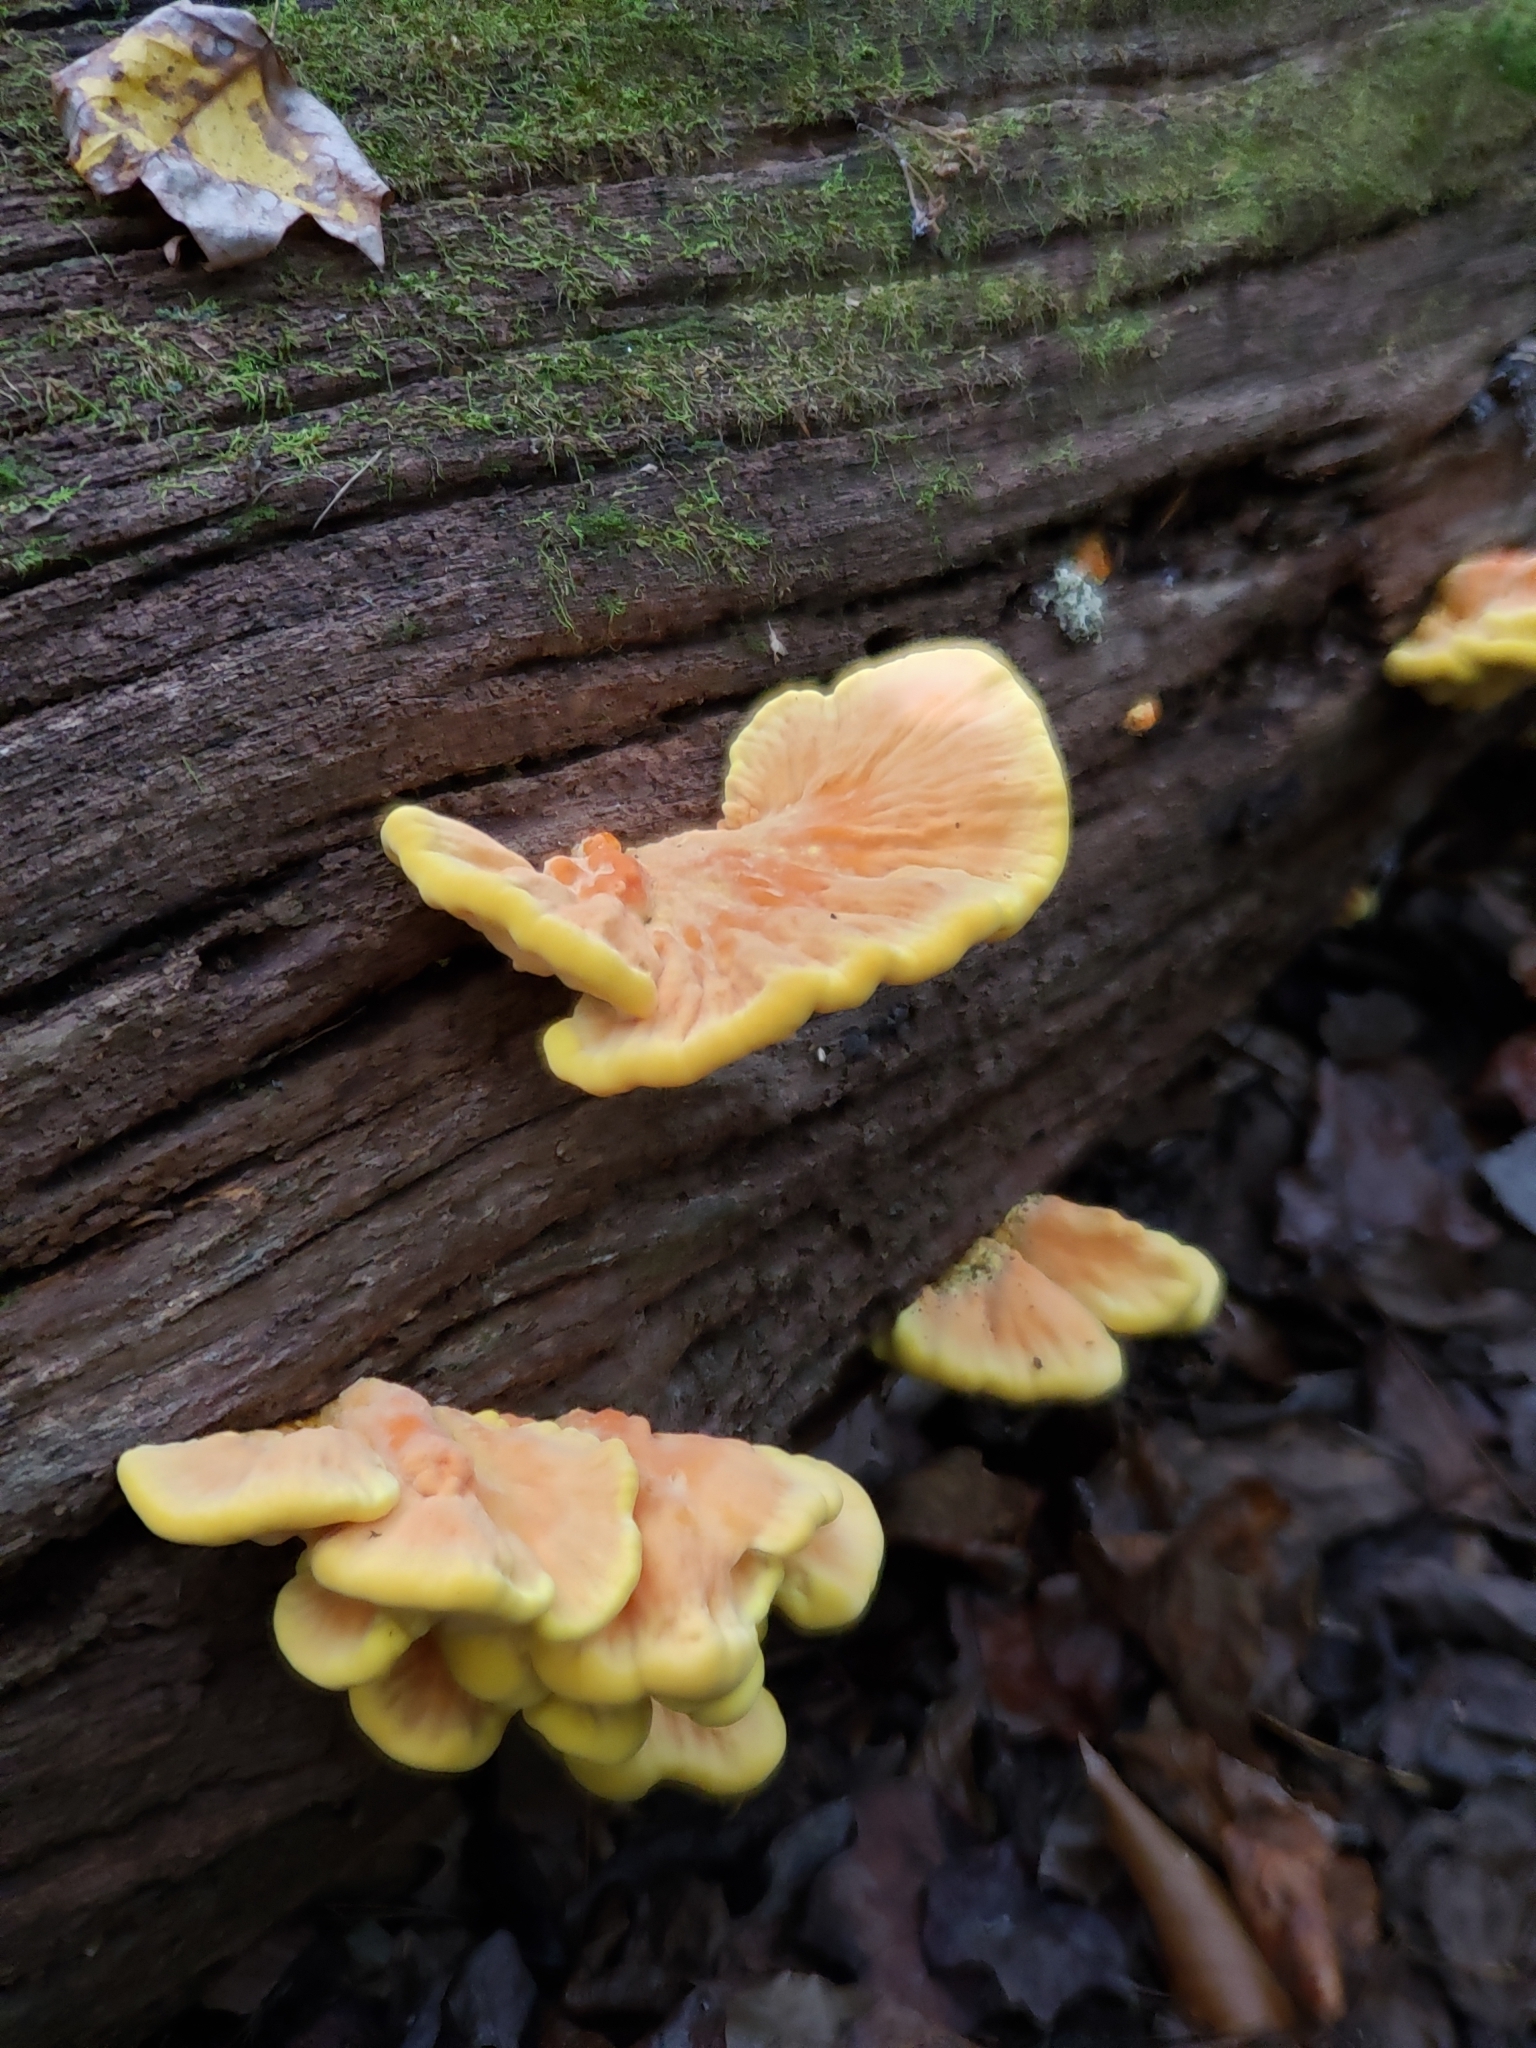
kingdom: Fungi
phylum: Basidiomycota
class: Agaricomycetes
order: Polyporales
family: Laetiporaceae
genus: Laetiporus
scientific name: Laetiporus sulphureus
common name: Chicken of the woods
